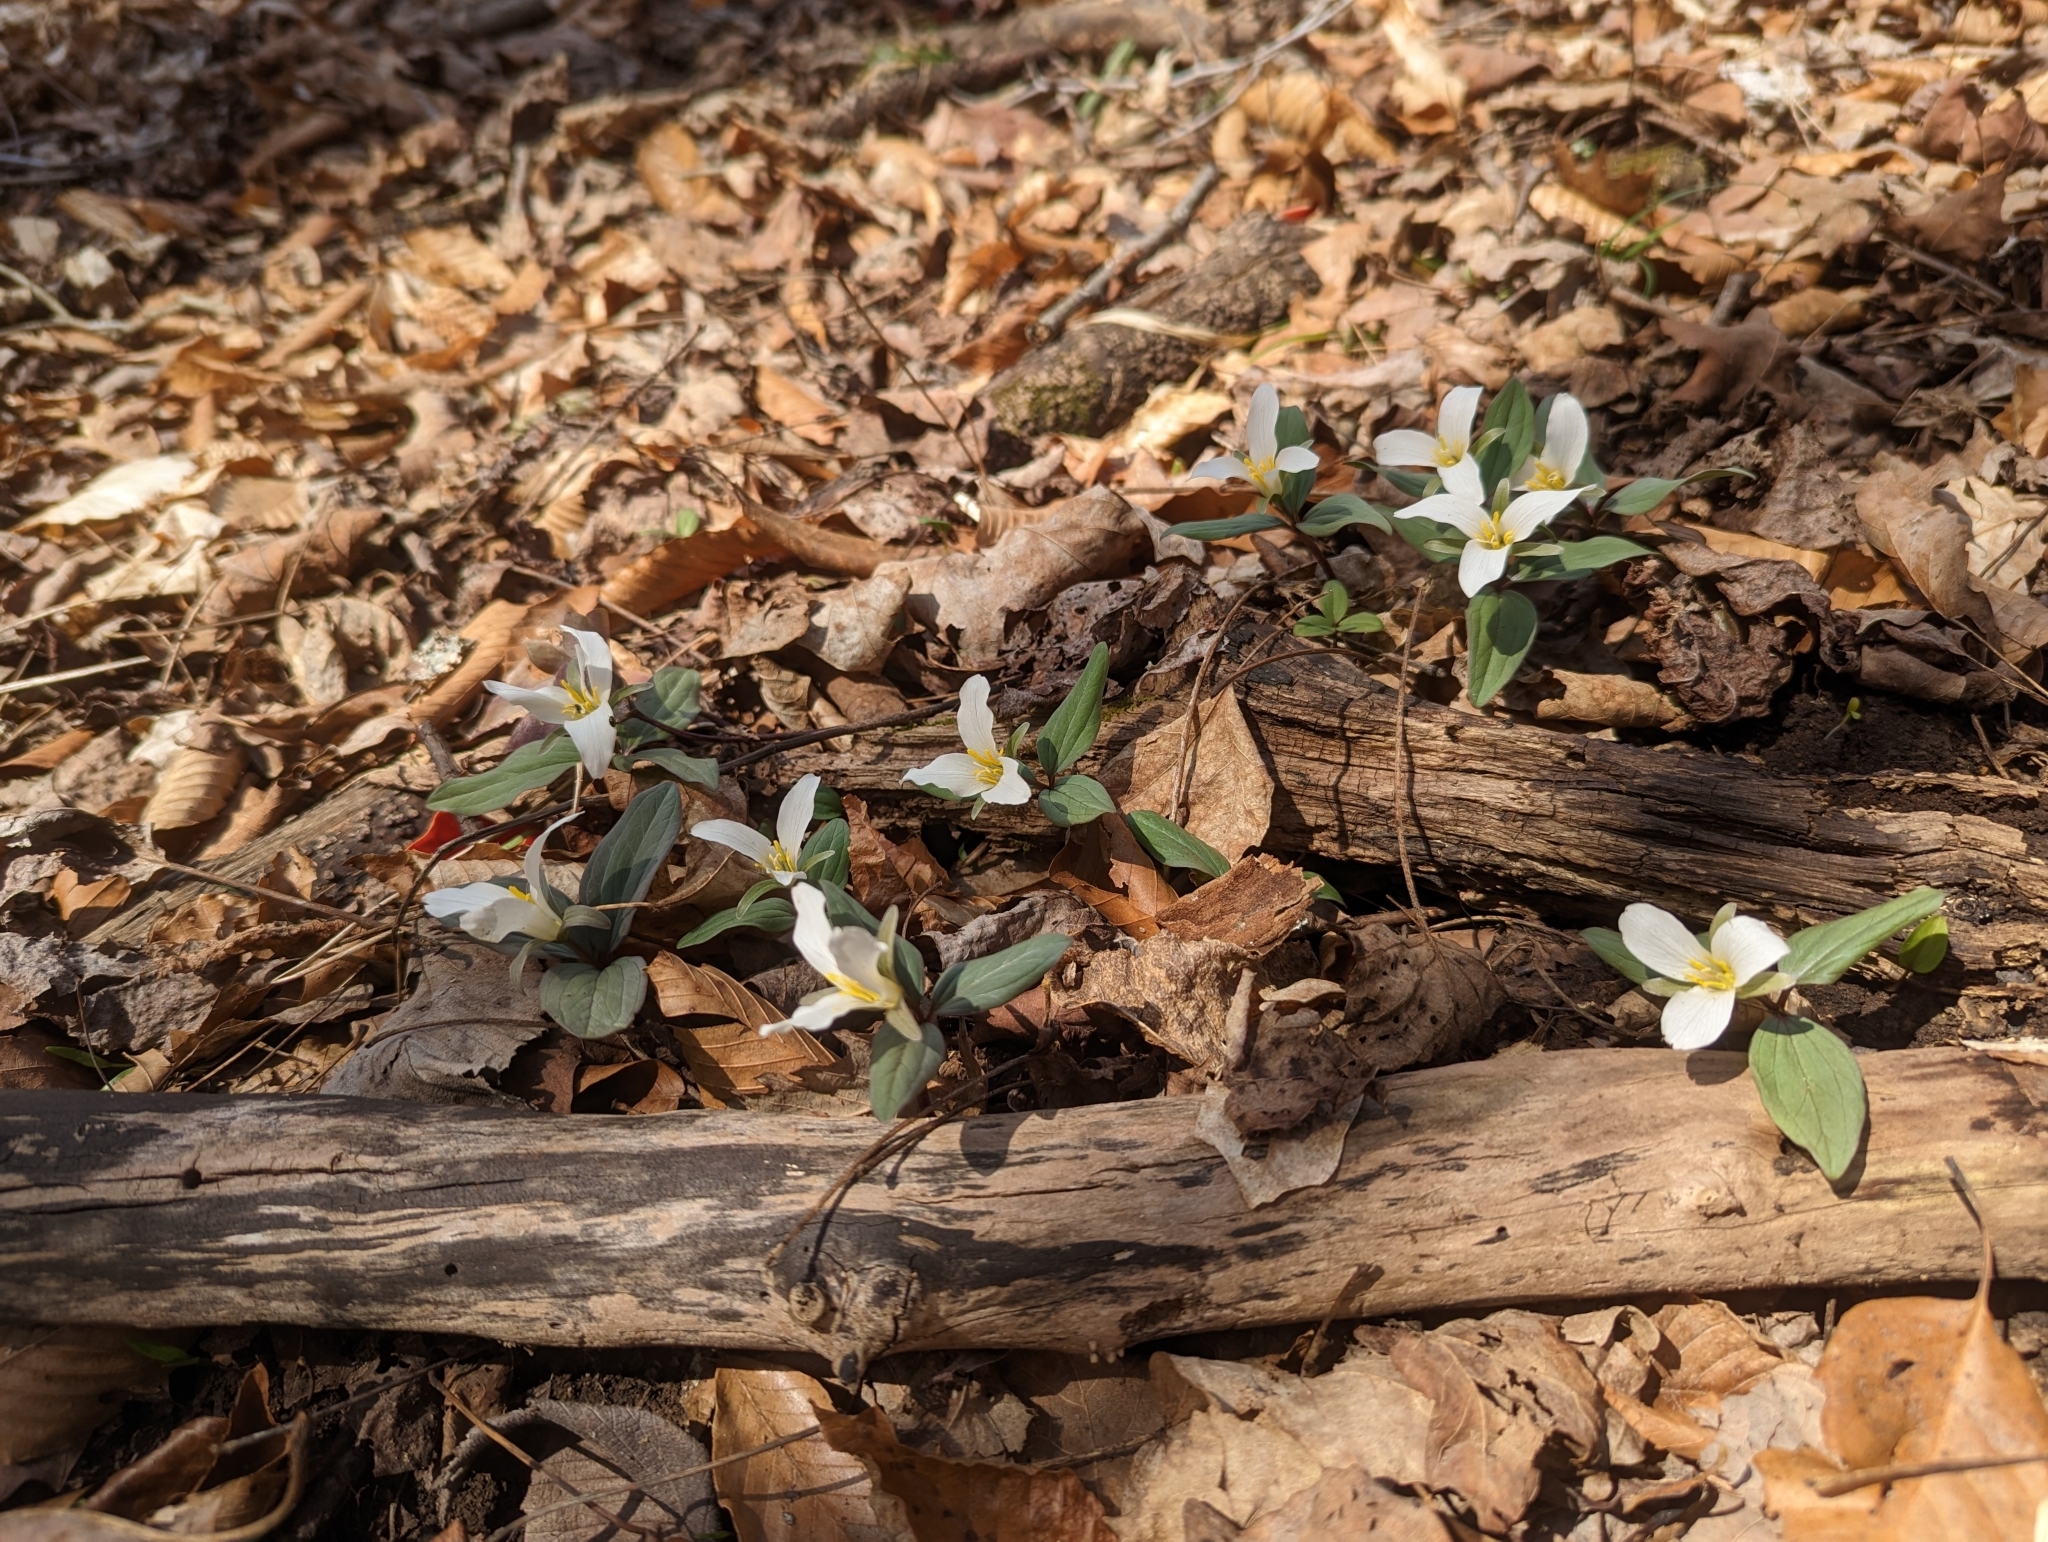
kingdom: Plantae
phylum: Tracheophyta
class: Liliopsida
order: Liliales
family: Melanthiaceae
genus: Trillium
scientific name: Trillium nivale
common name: Dwarf white trillium
